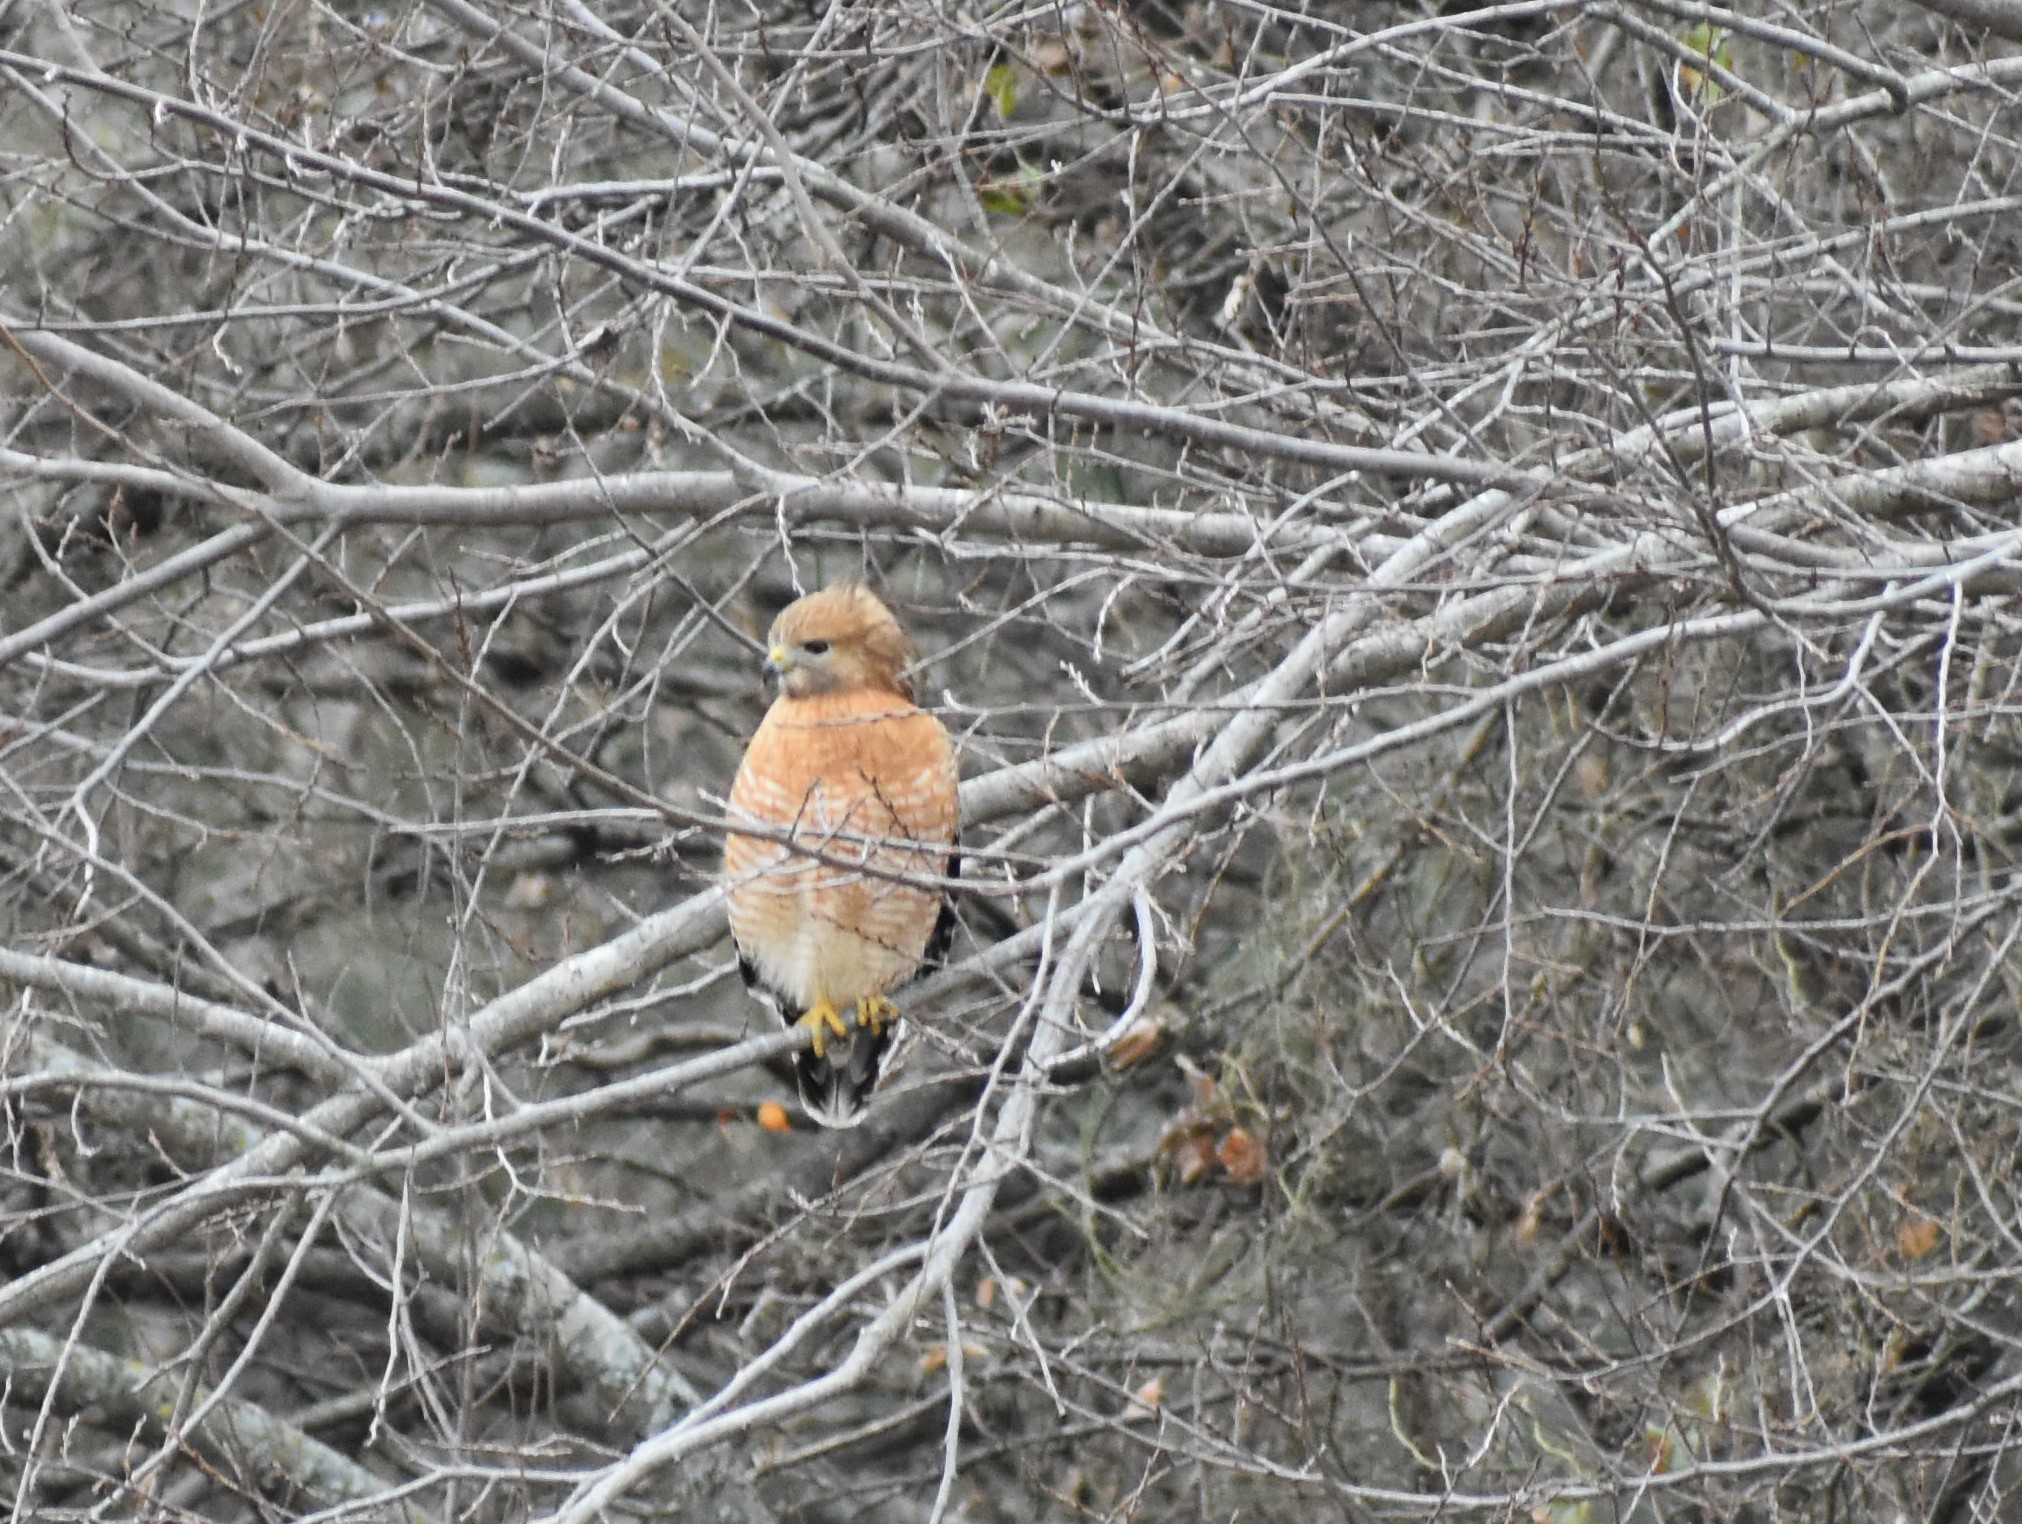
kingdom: Animalia
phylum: Chordata
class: Aves
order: Accipitriformes
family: Accipitridae
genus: Buteo
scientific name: Buteo lineatus
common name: Red-shouldered hawk
